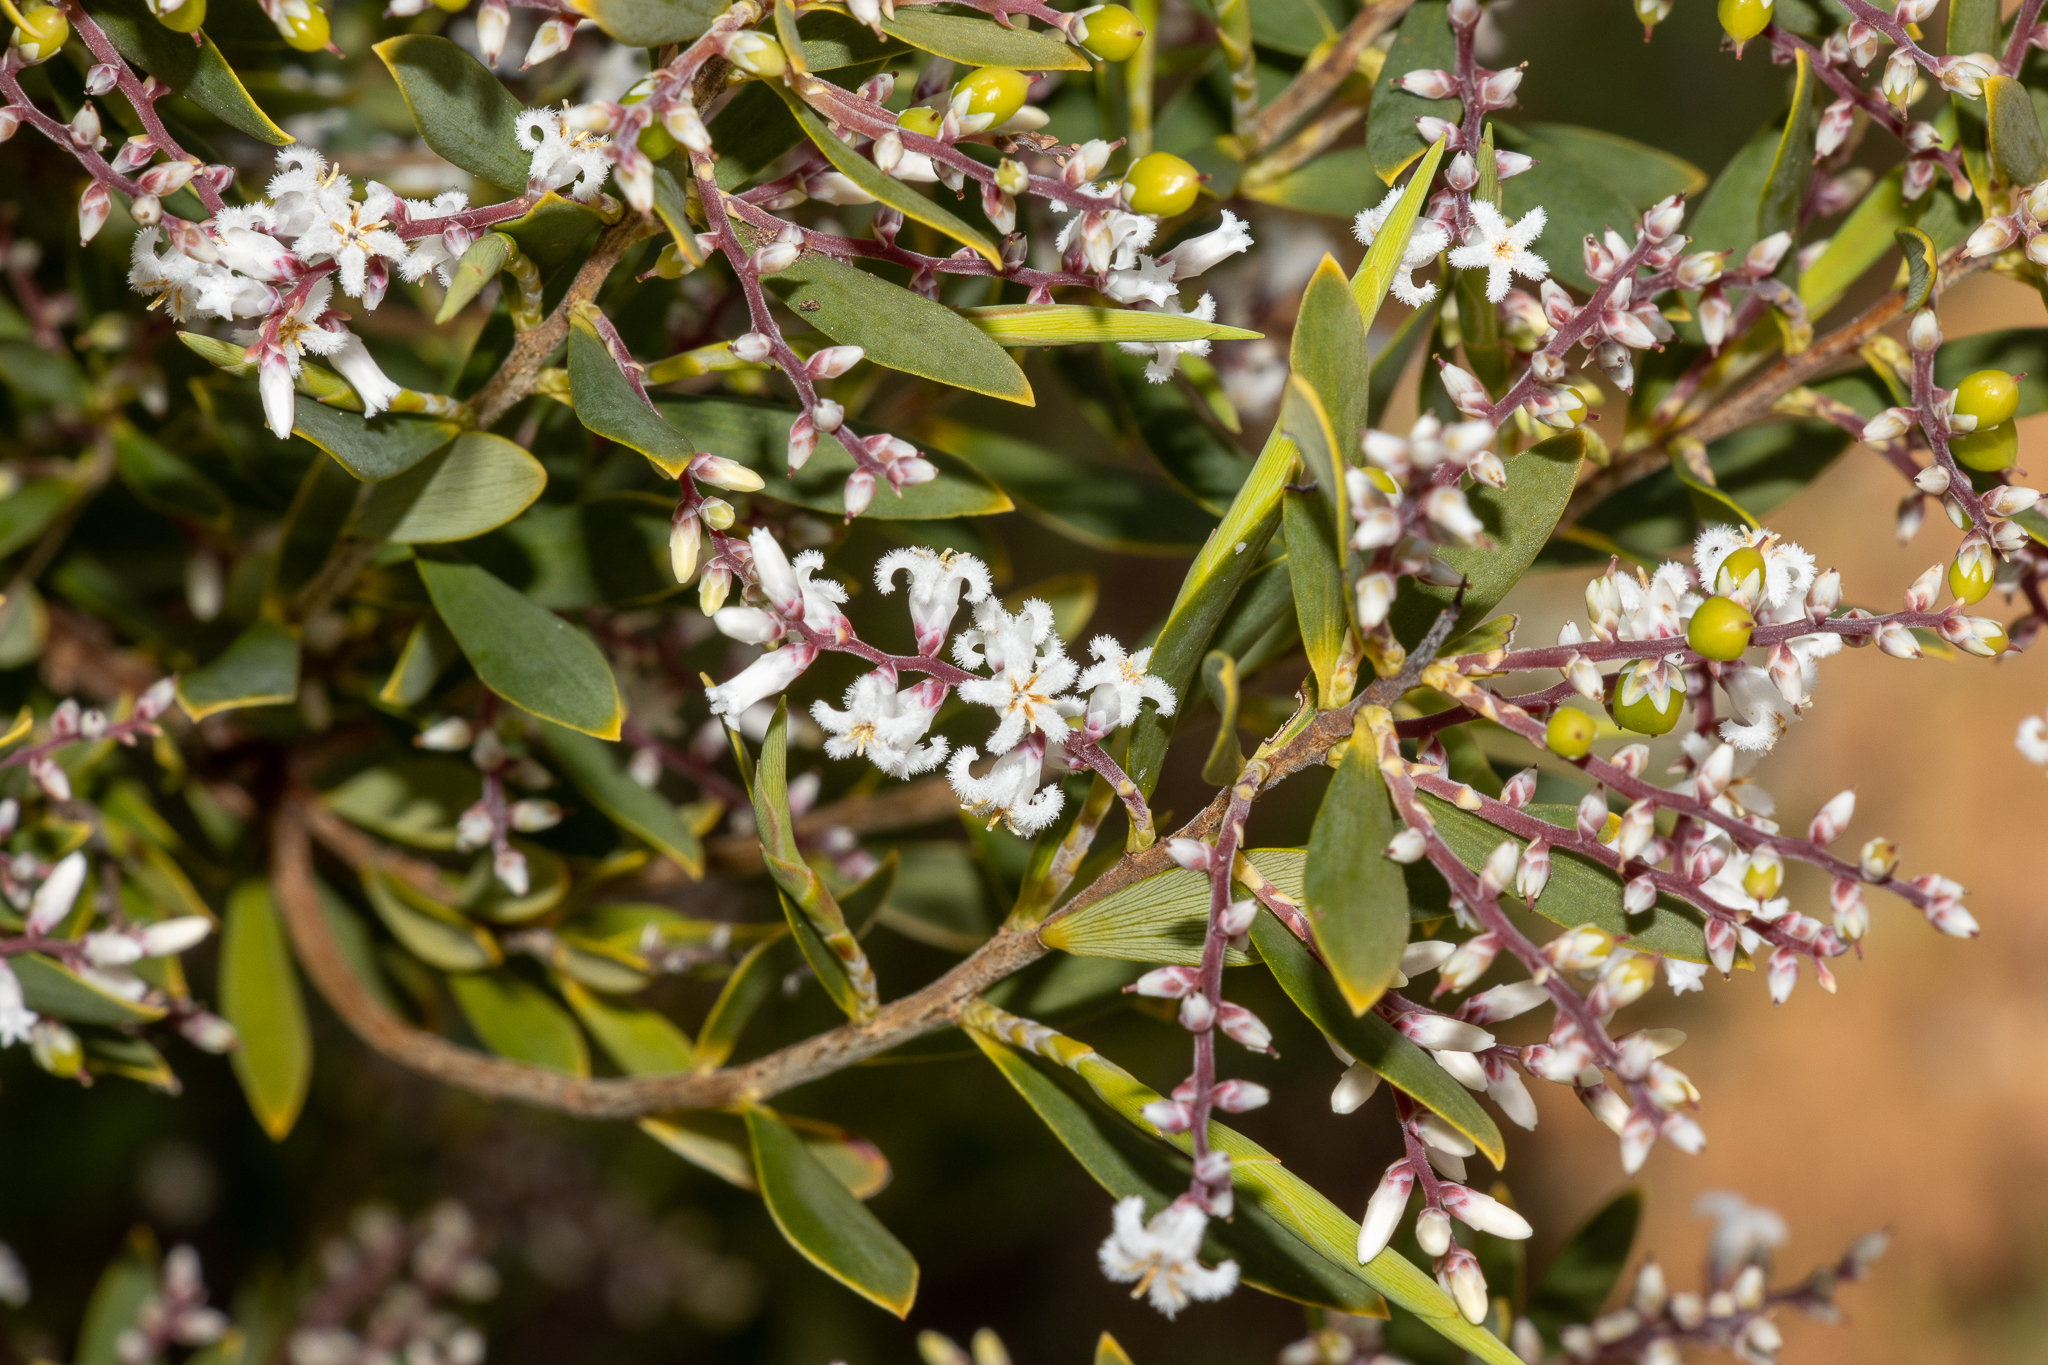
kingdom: Plantae
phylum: Tracheophyta
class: Magnoliopsida
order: Ericales
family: Ericaceae
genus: Leptecophylla
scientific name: Leptecophylla parvifolia
